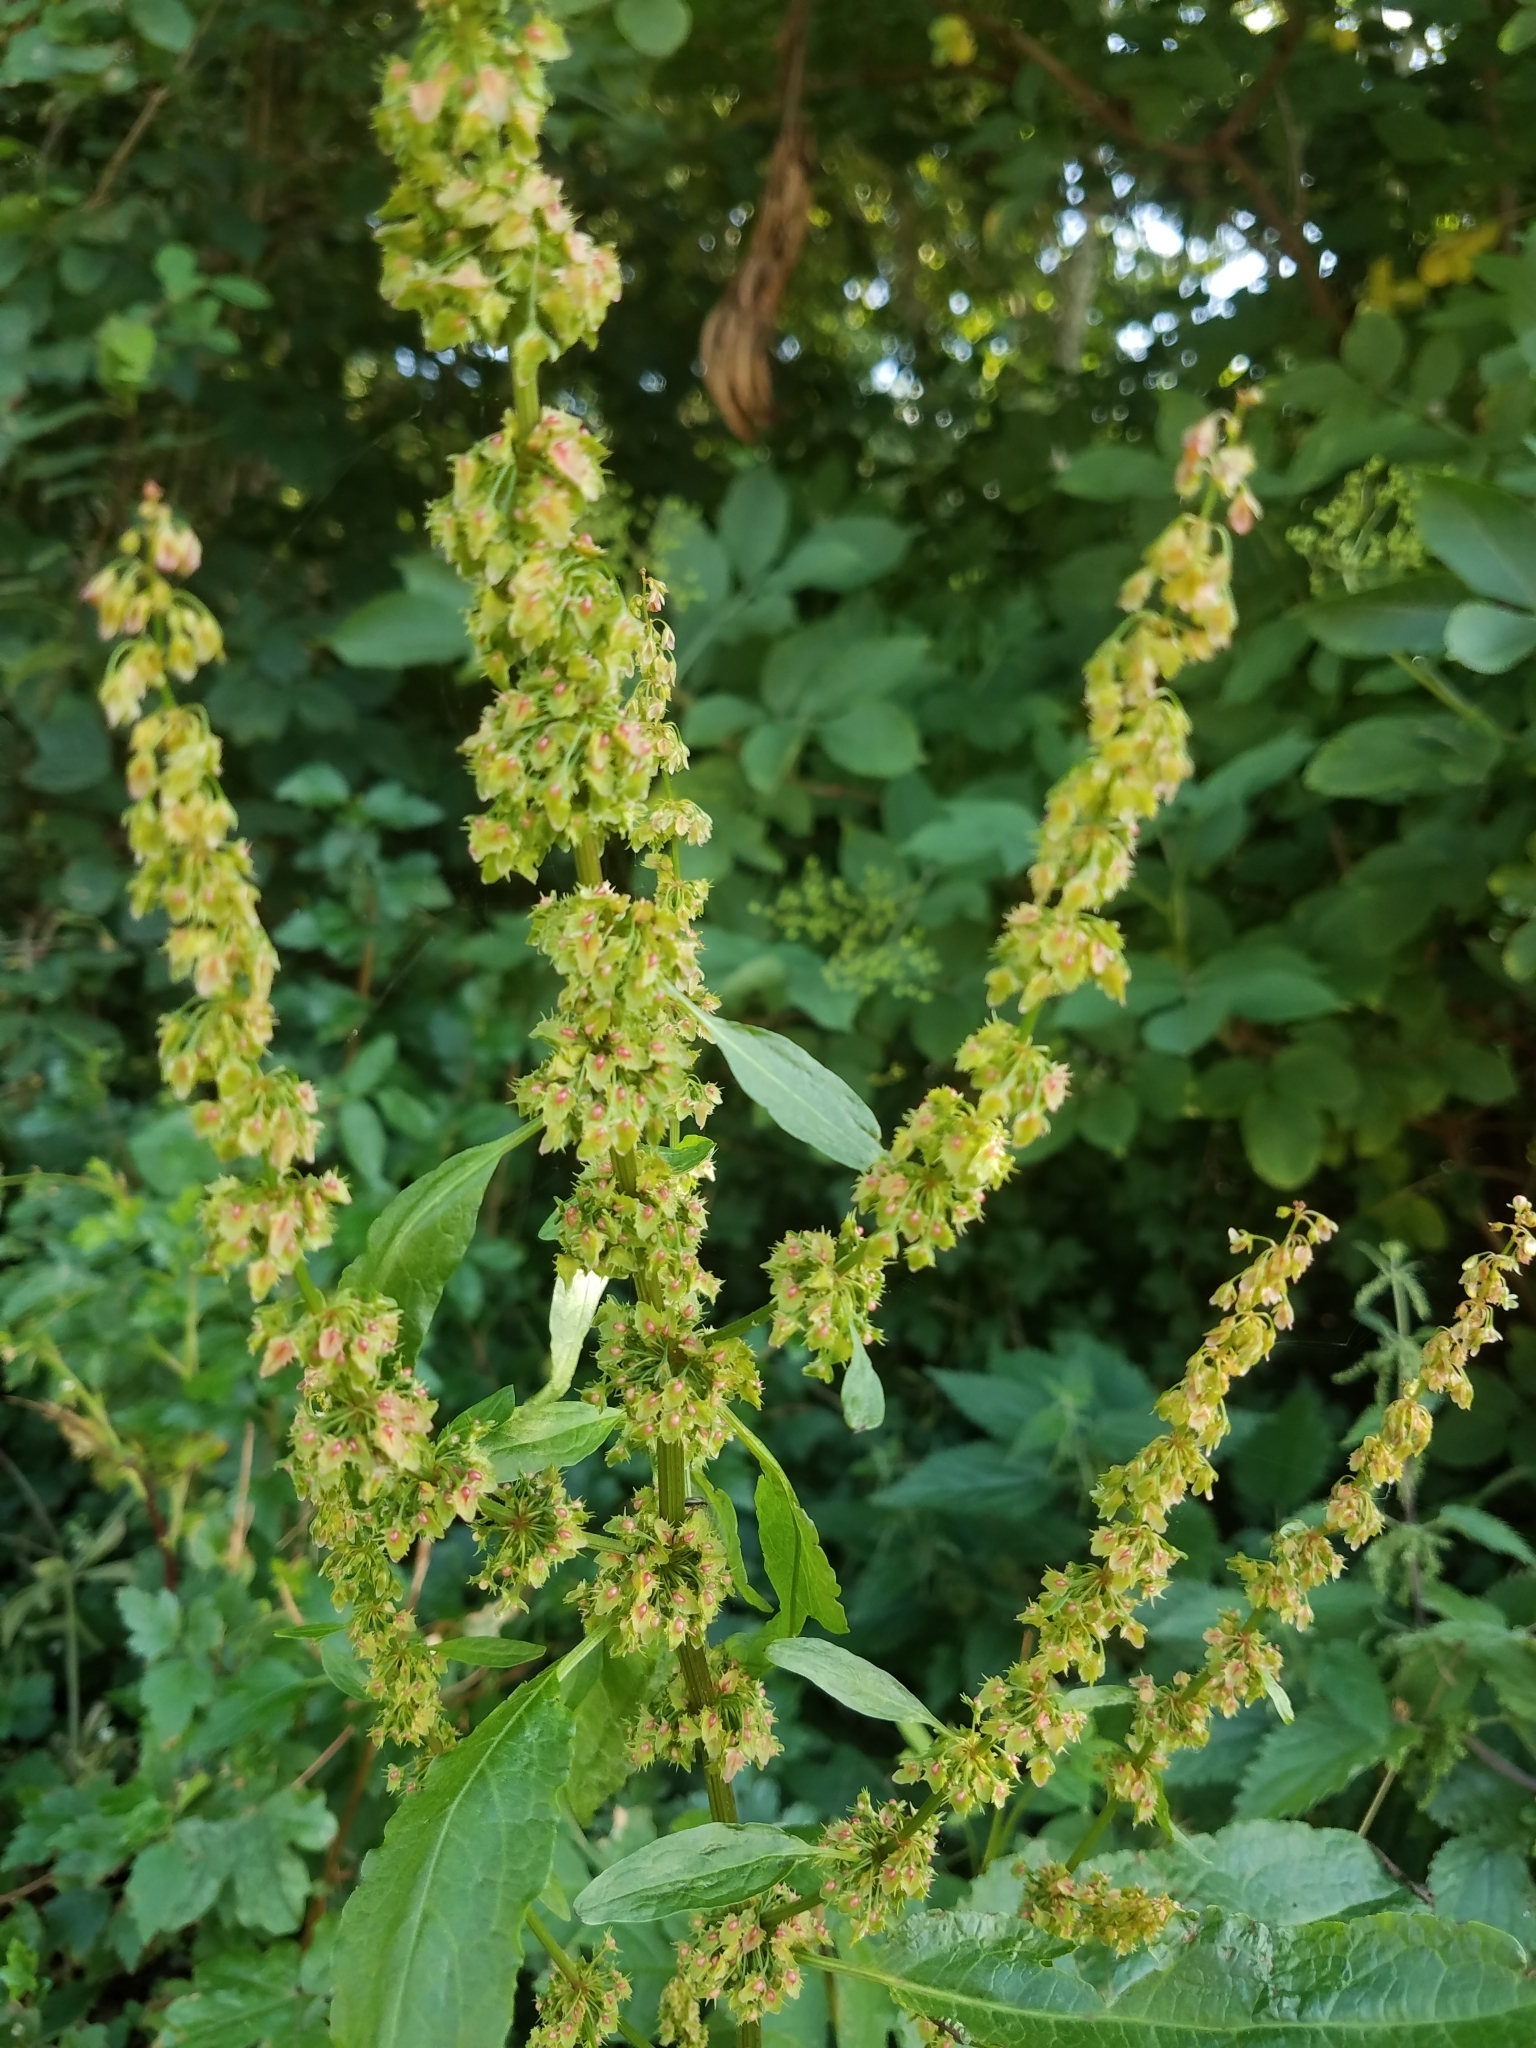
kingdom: Plantae
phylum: Tracheophyta
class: Magnoliopsida
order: Caryophyllales
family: Polygonaceae
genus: Rumex
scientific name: Rumex obtusifolius
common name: Bitter dock
